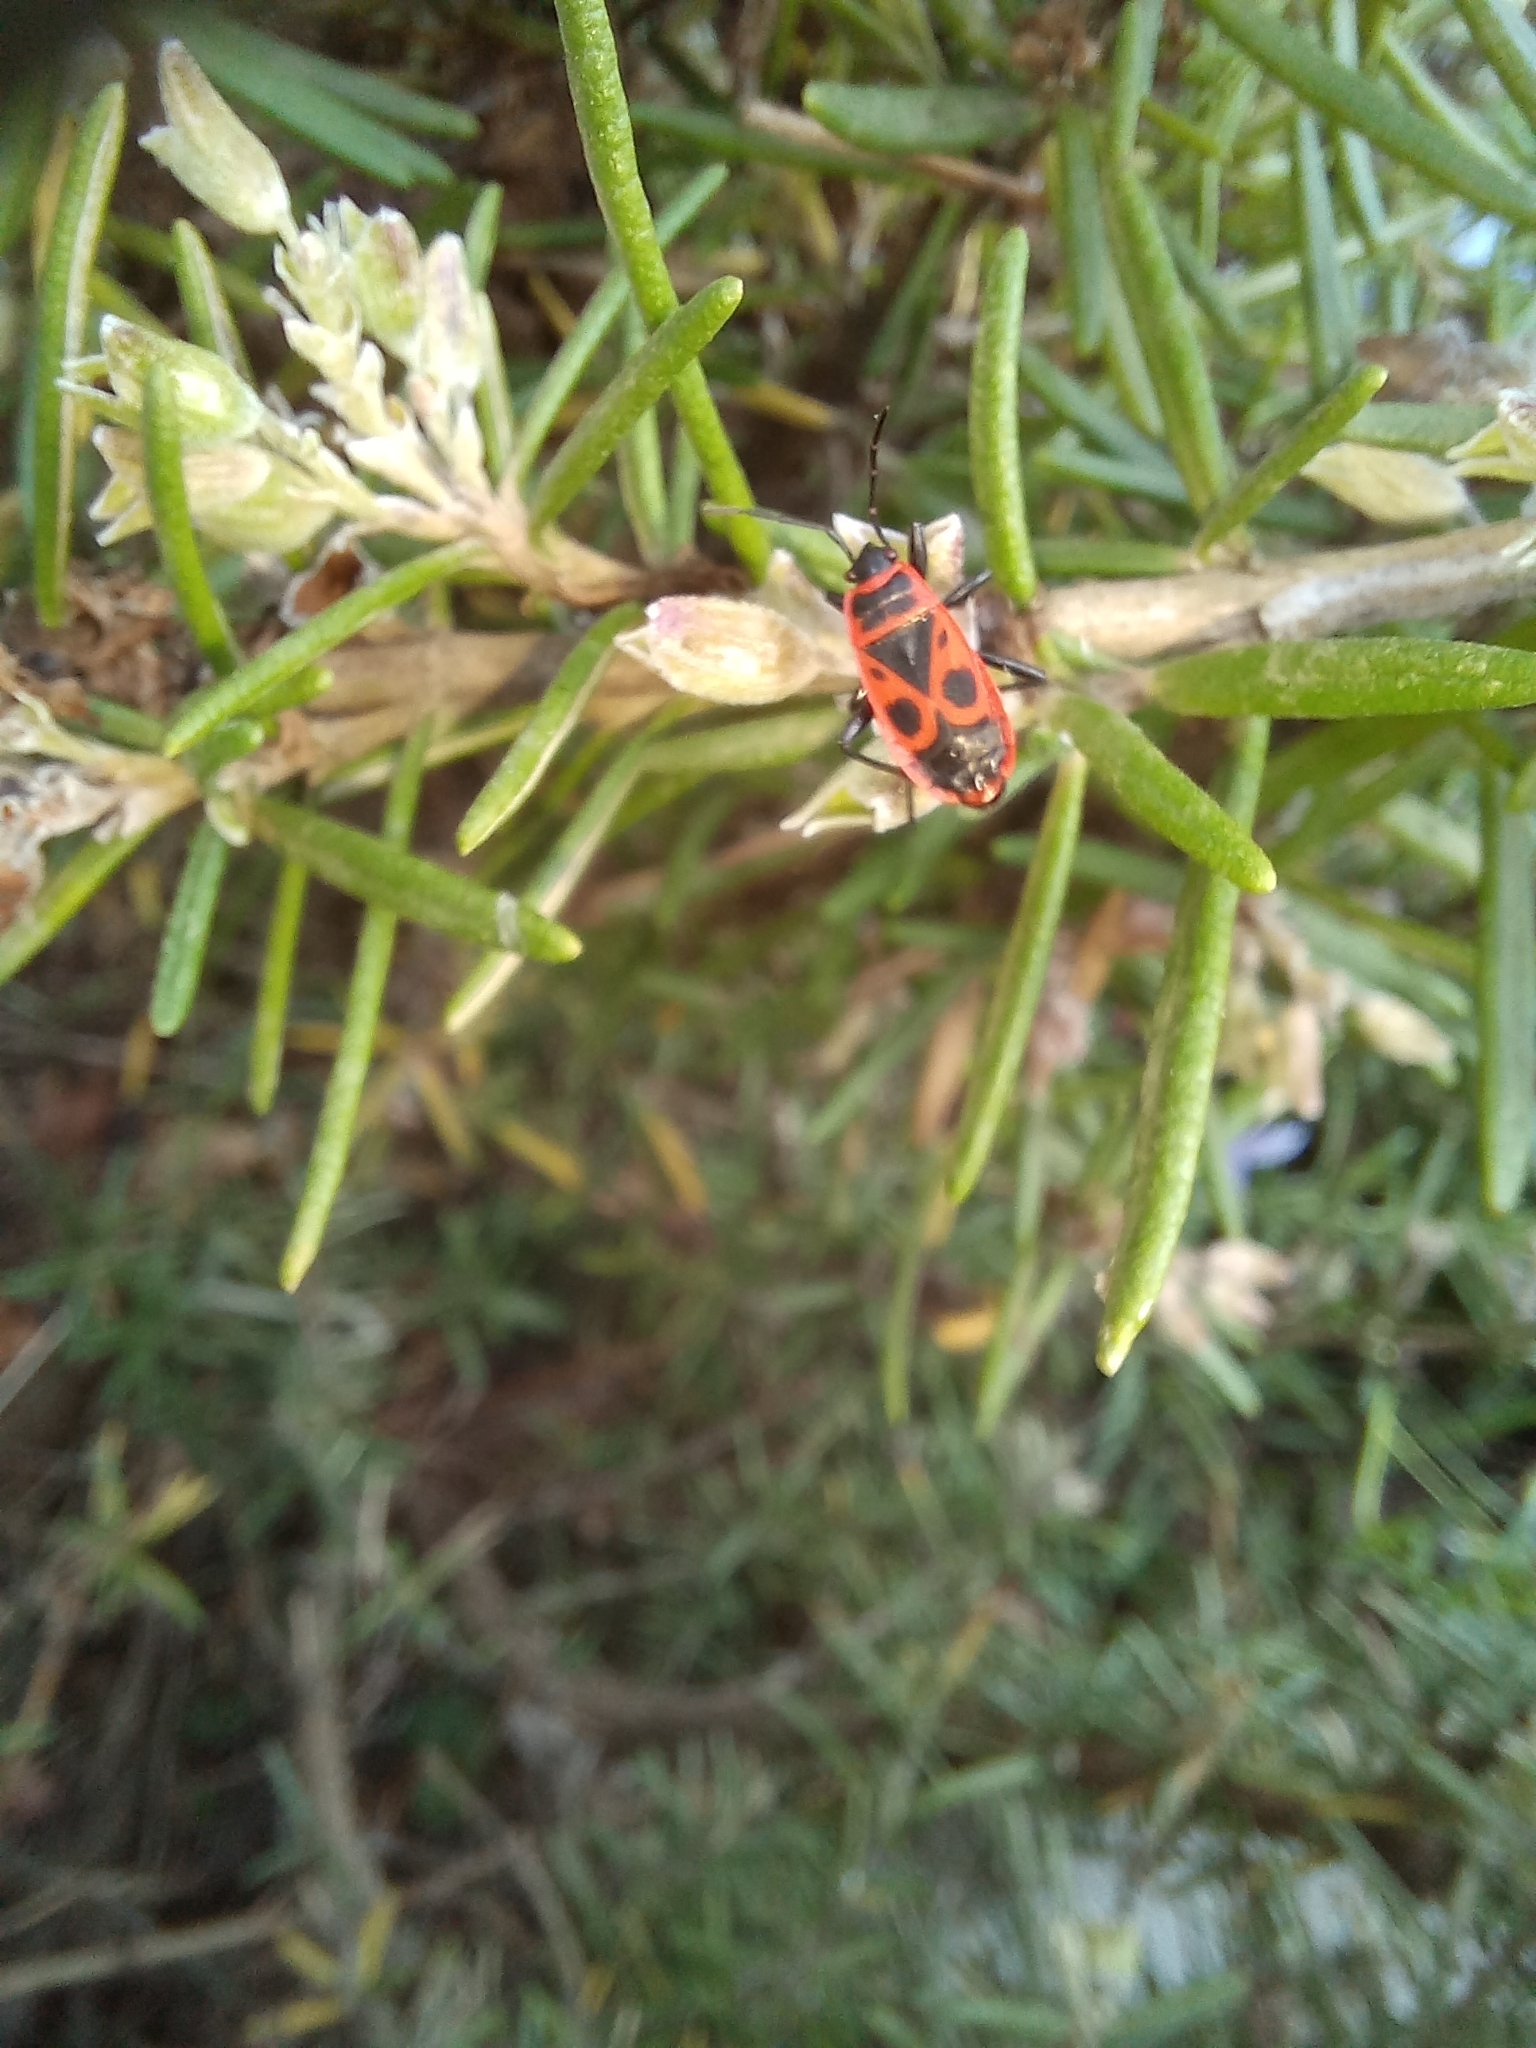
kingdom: Animalia
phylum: Arthropoda
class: Insecta
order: Hemiptera
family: Pyrrhocoridae
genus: Pyrrhocoris
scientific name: Pyrrhocoris apterus
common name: Firebug
